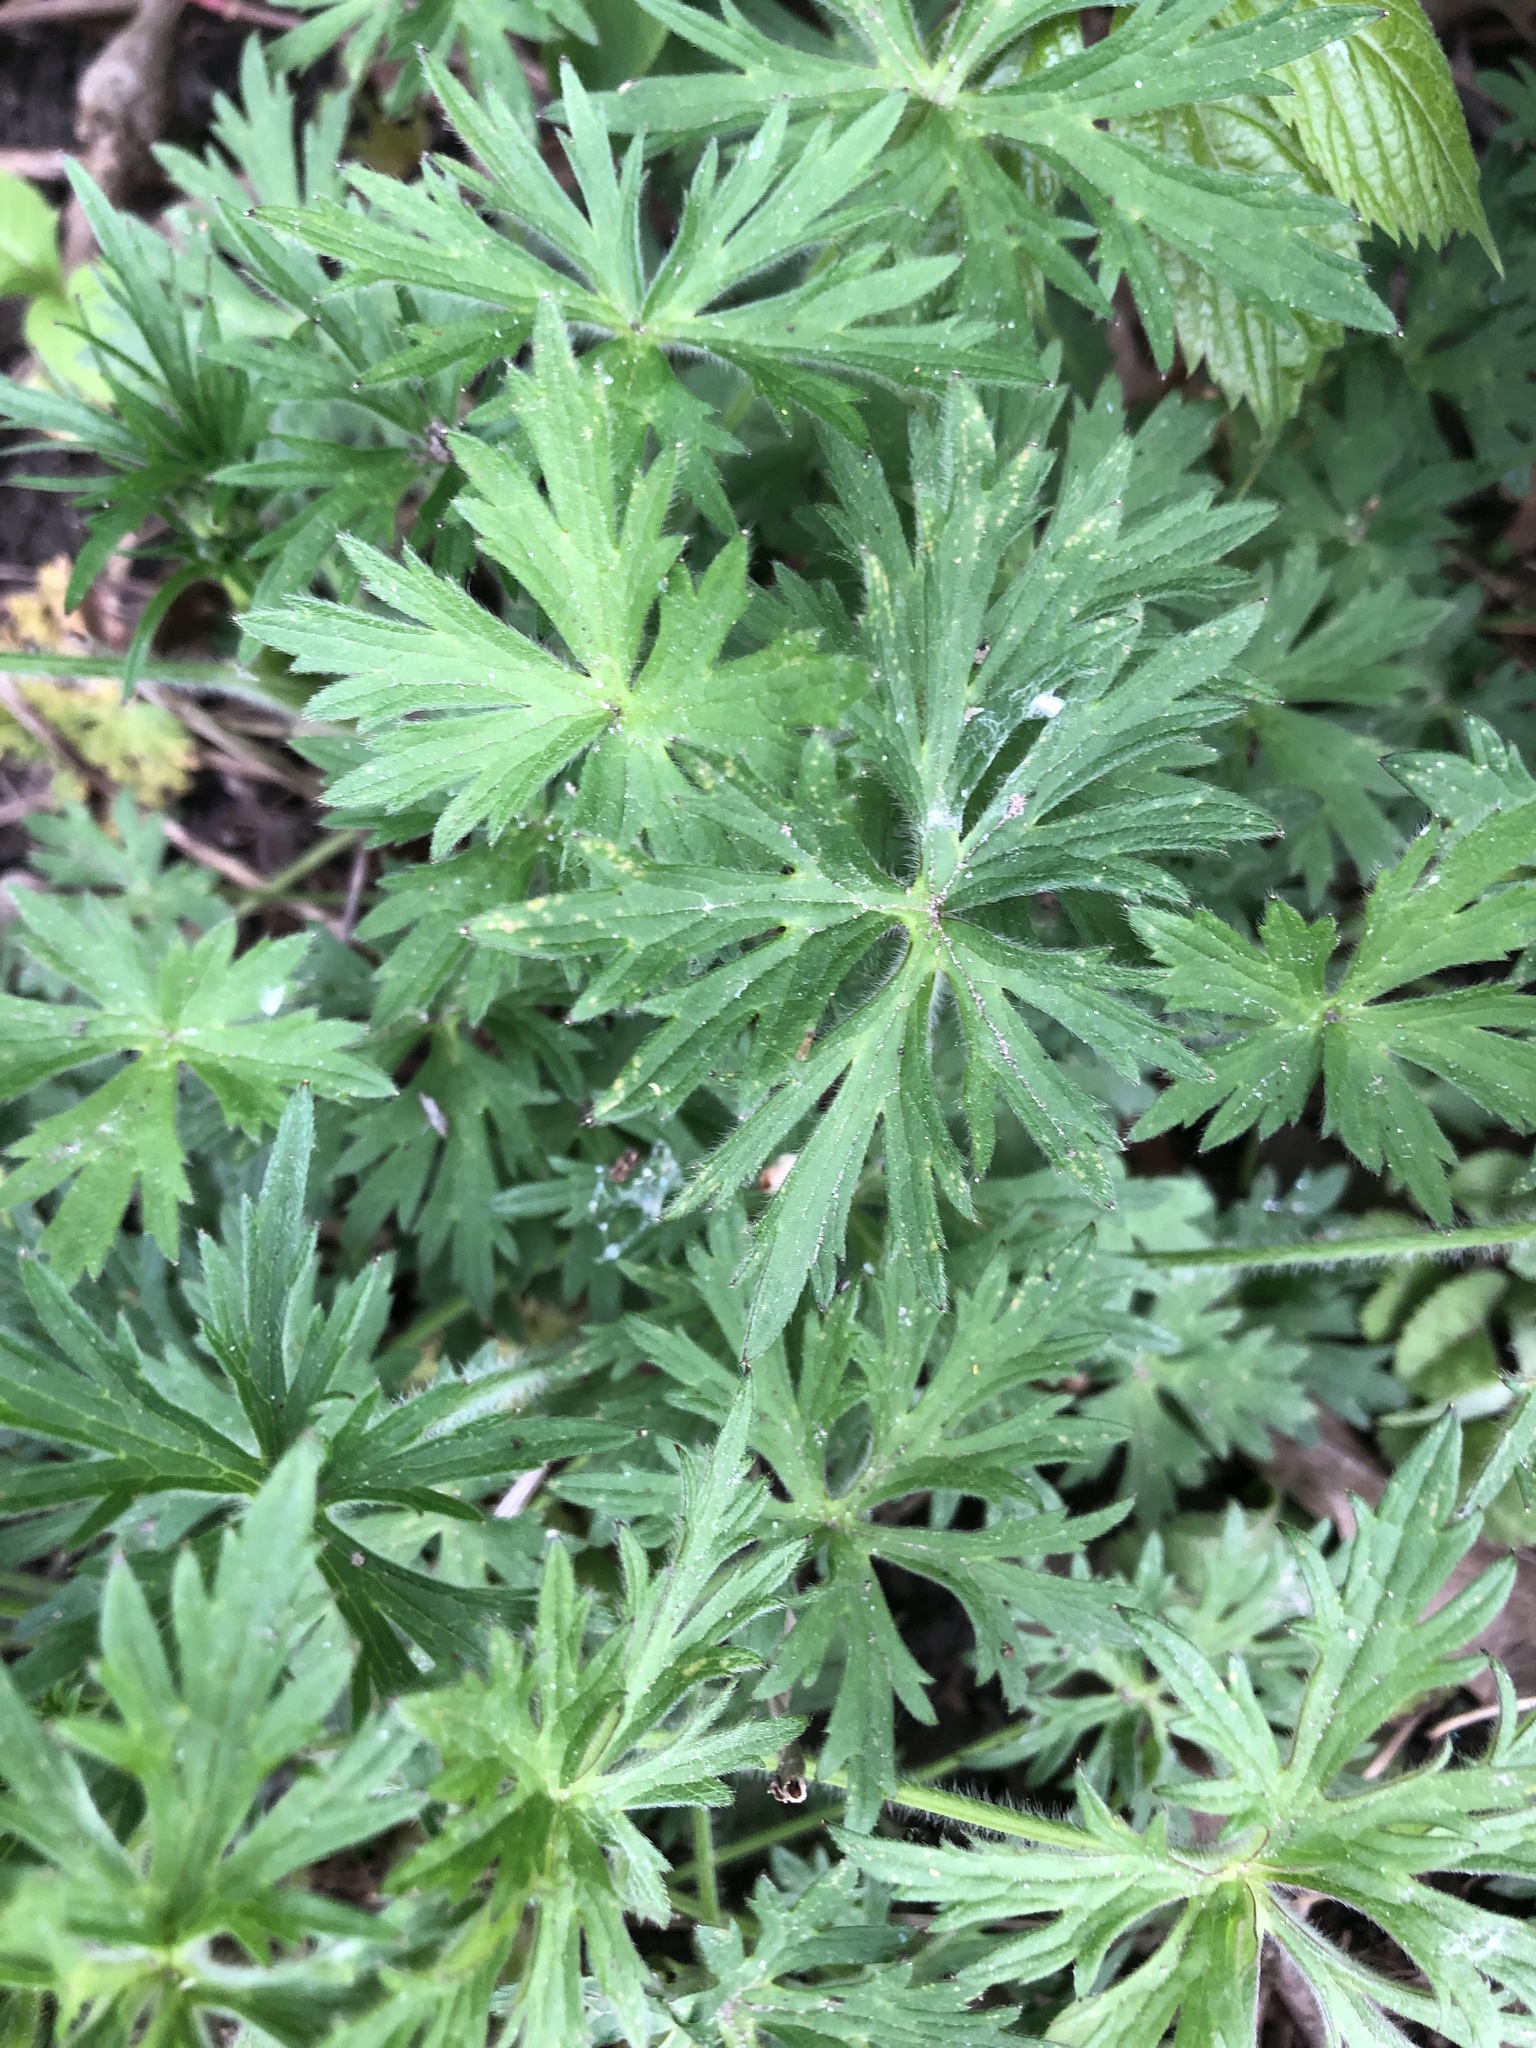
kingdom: Plantae
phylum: Tracheophyta
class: Magnoliopsida
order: Ranunculales
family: Ranunculaceae
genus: Ranunculus
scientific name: Ranunculus acris
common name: Meadow buttercup
